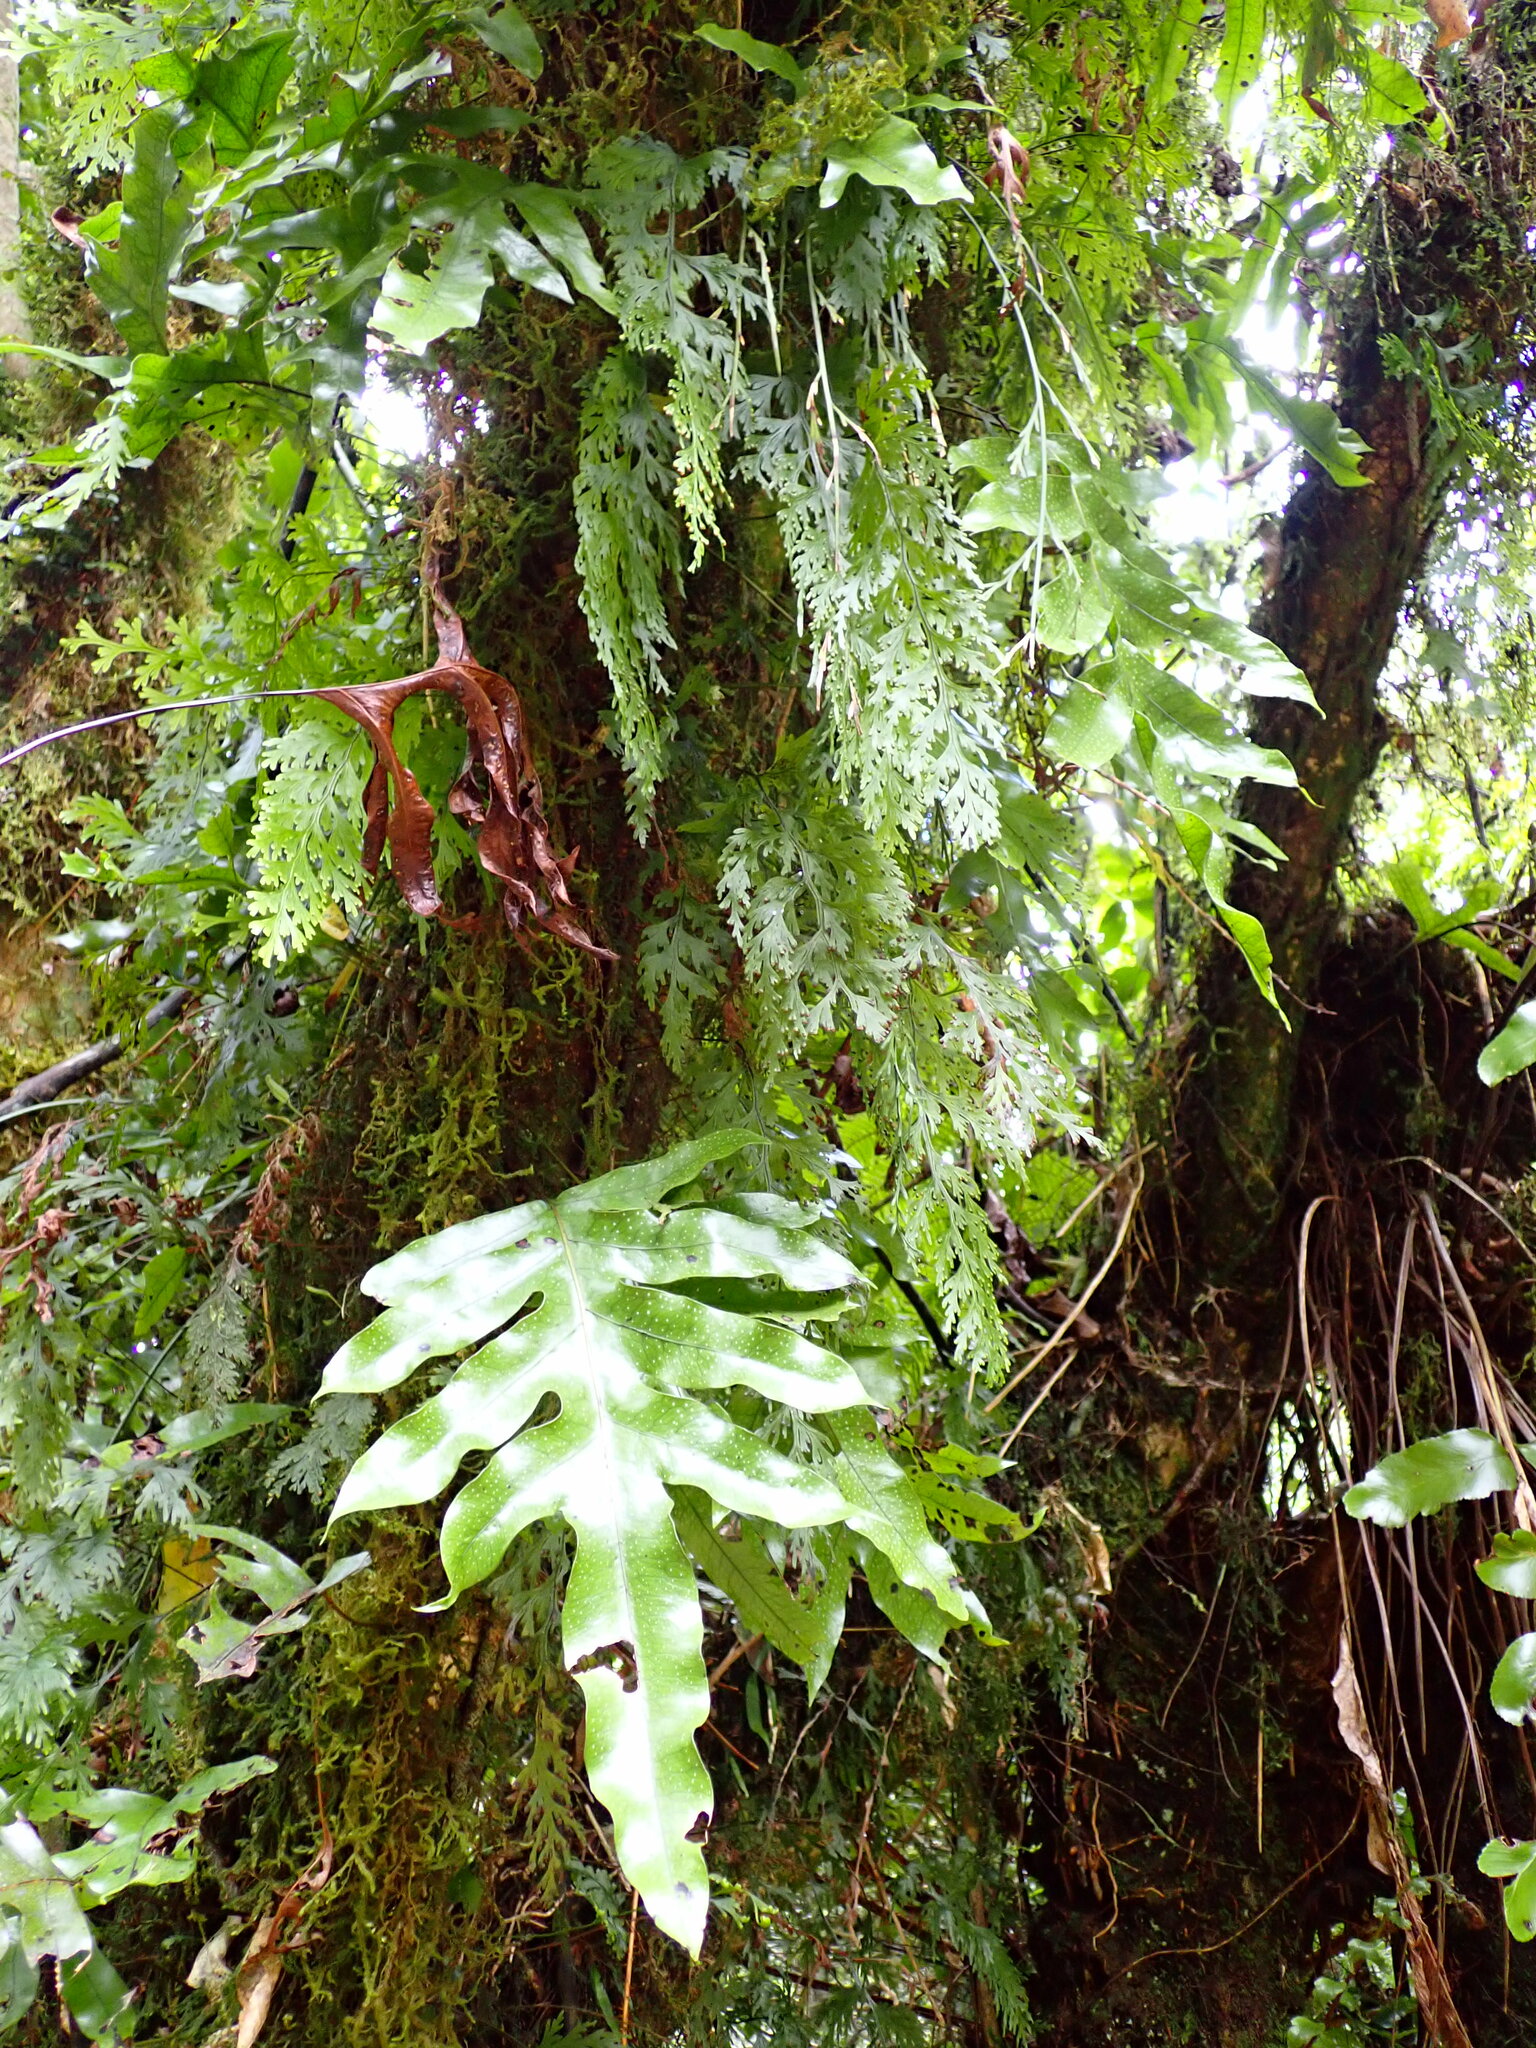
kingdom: Plantae
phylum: Tracheophyta
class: Polypodiopsida
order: Hymenophyllales
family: Hymenophyllaceae
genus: Hymenophyllum
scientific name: Hymenophyllum dilatatum
